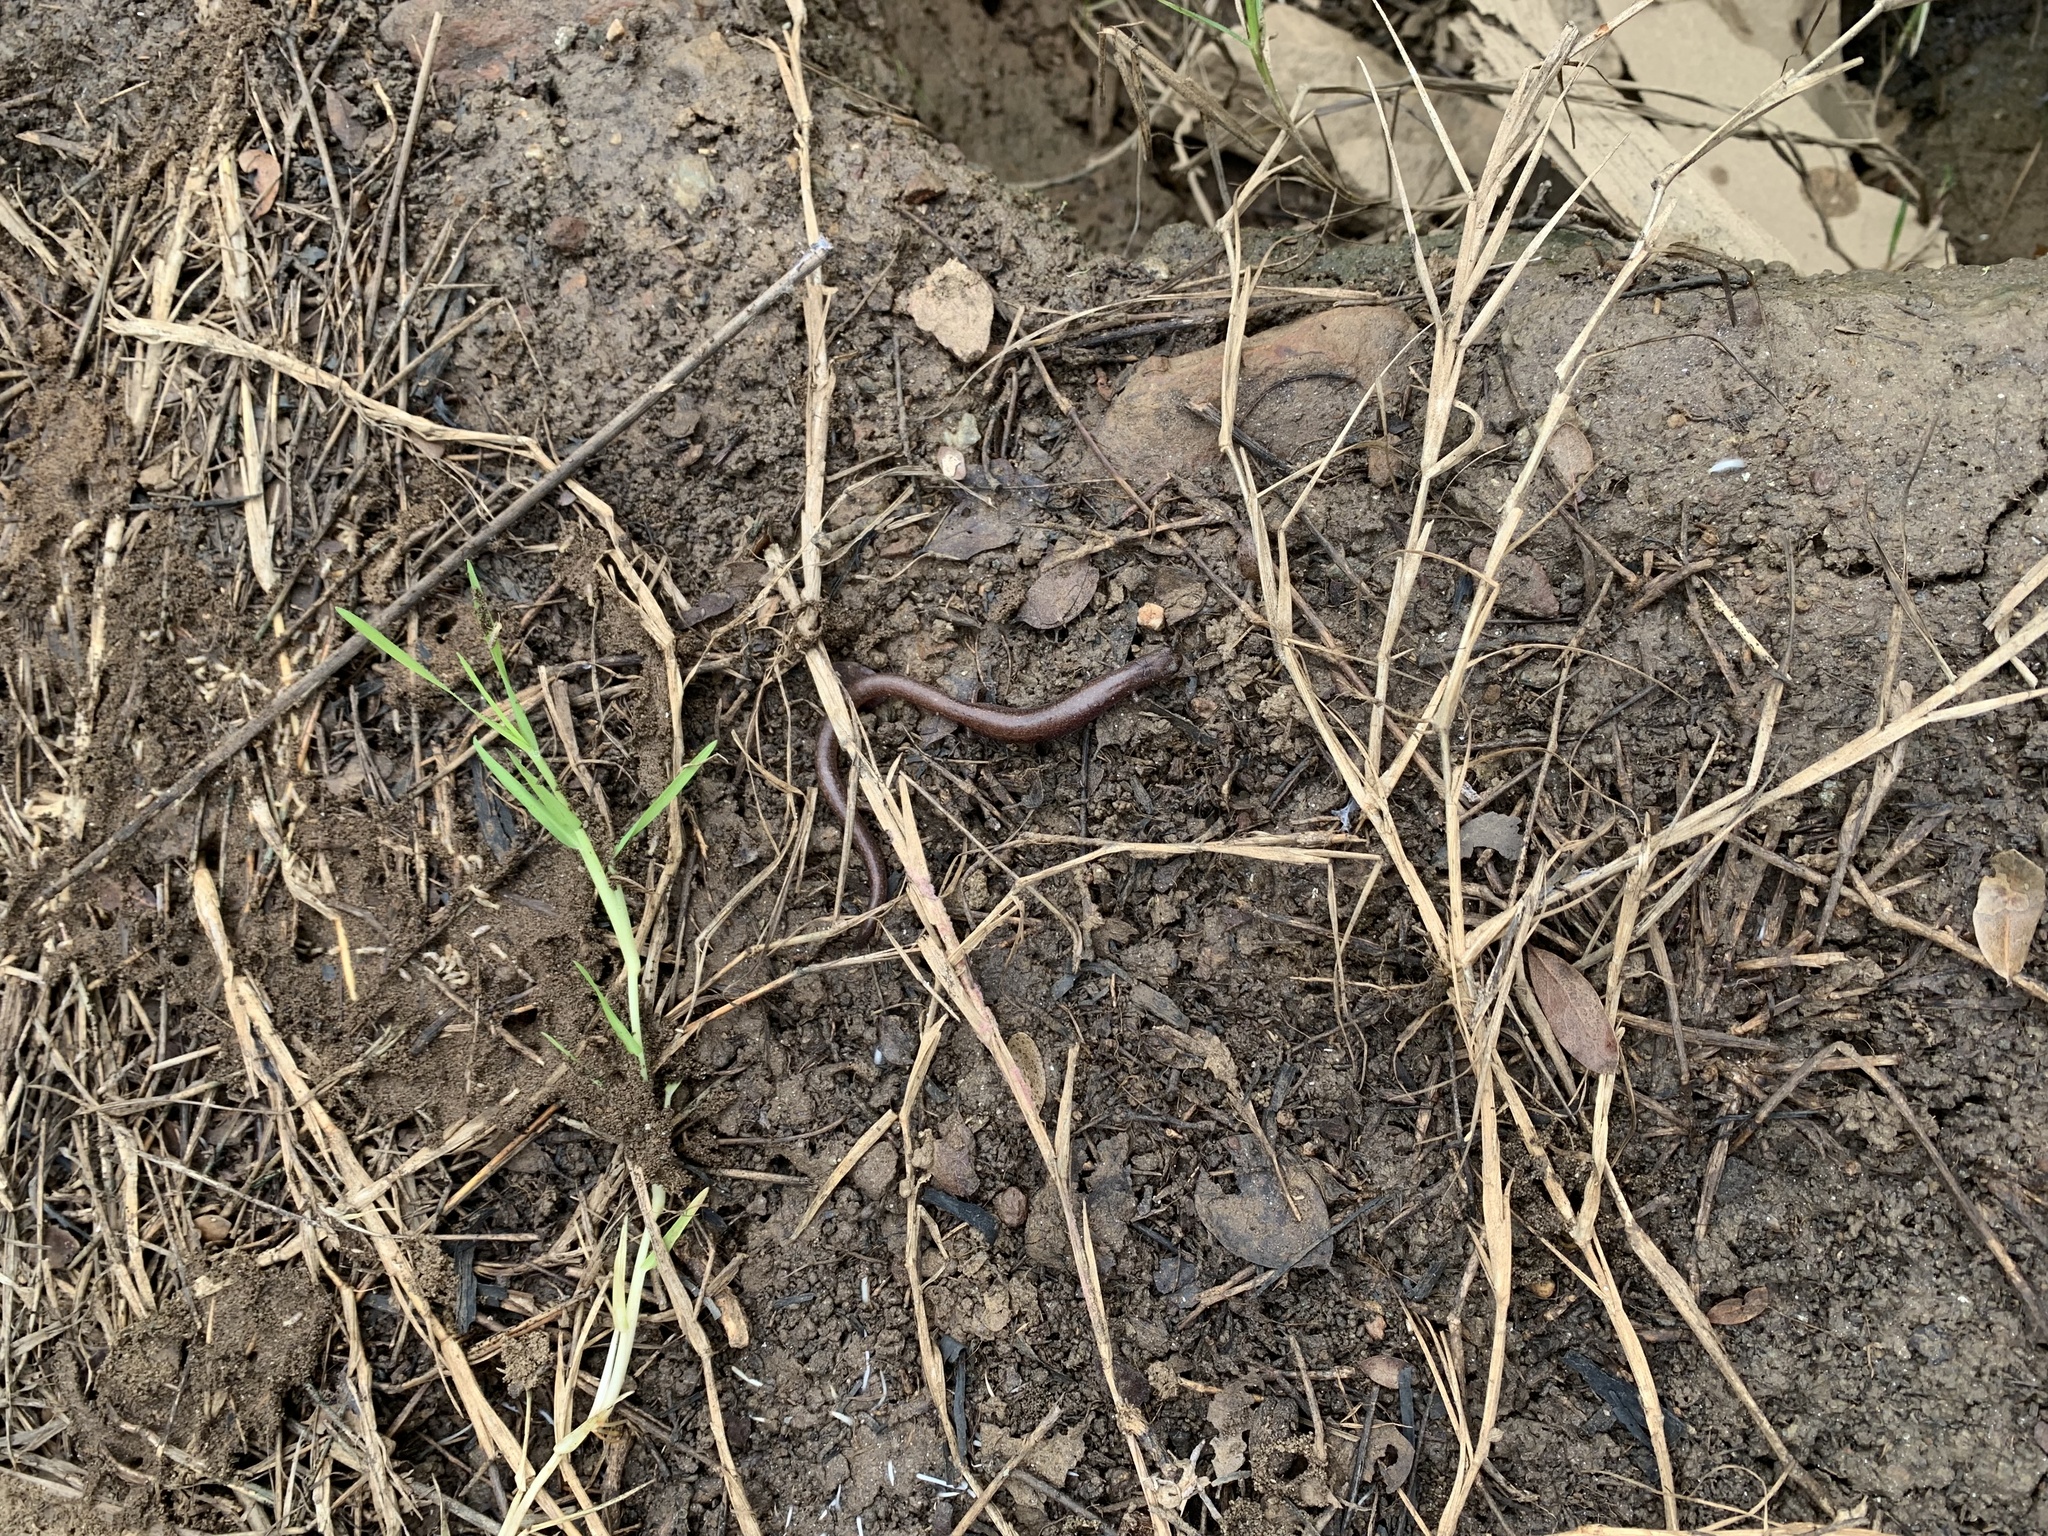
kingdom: Animalia
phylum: Chordata
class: Amphibia
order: Caudata
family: Plethodontidae
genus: Batrachoseps
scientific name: Batrachoseps major
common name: Garden slender salamander
